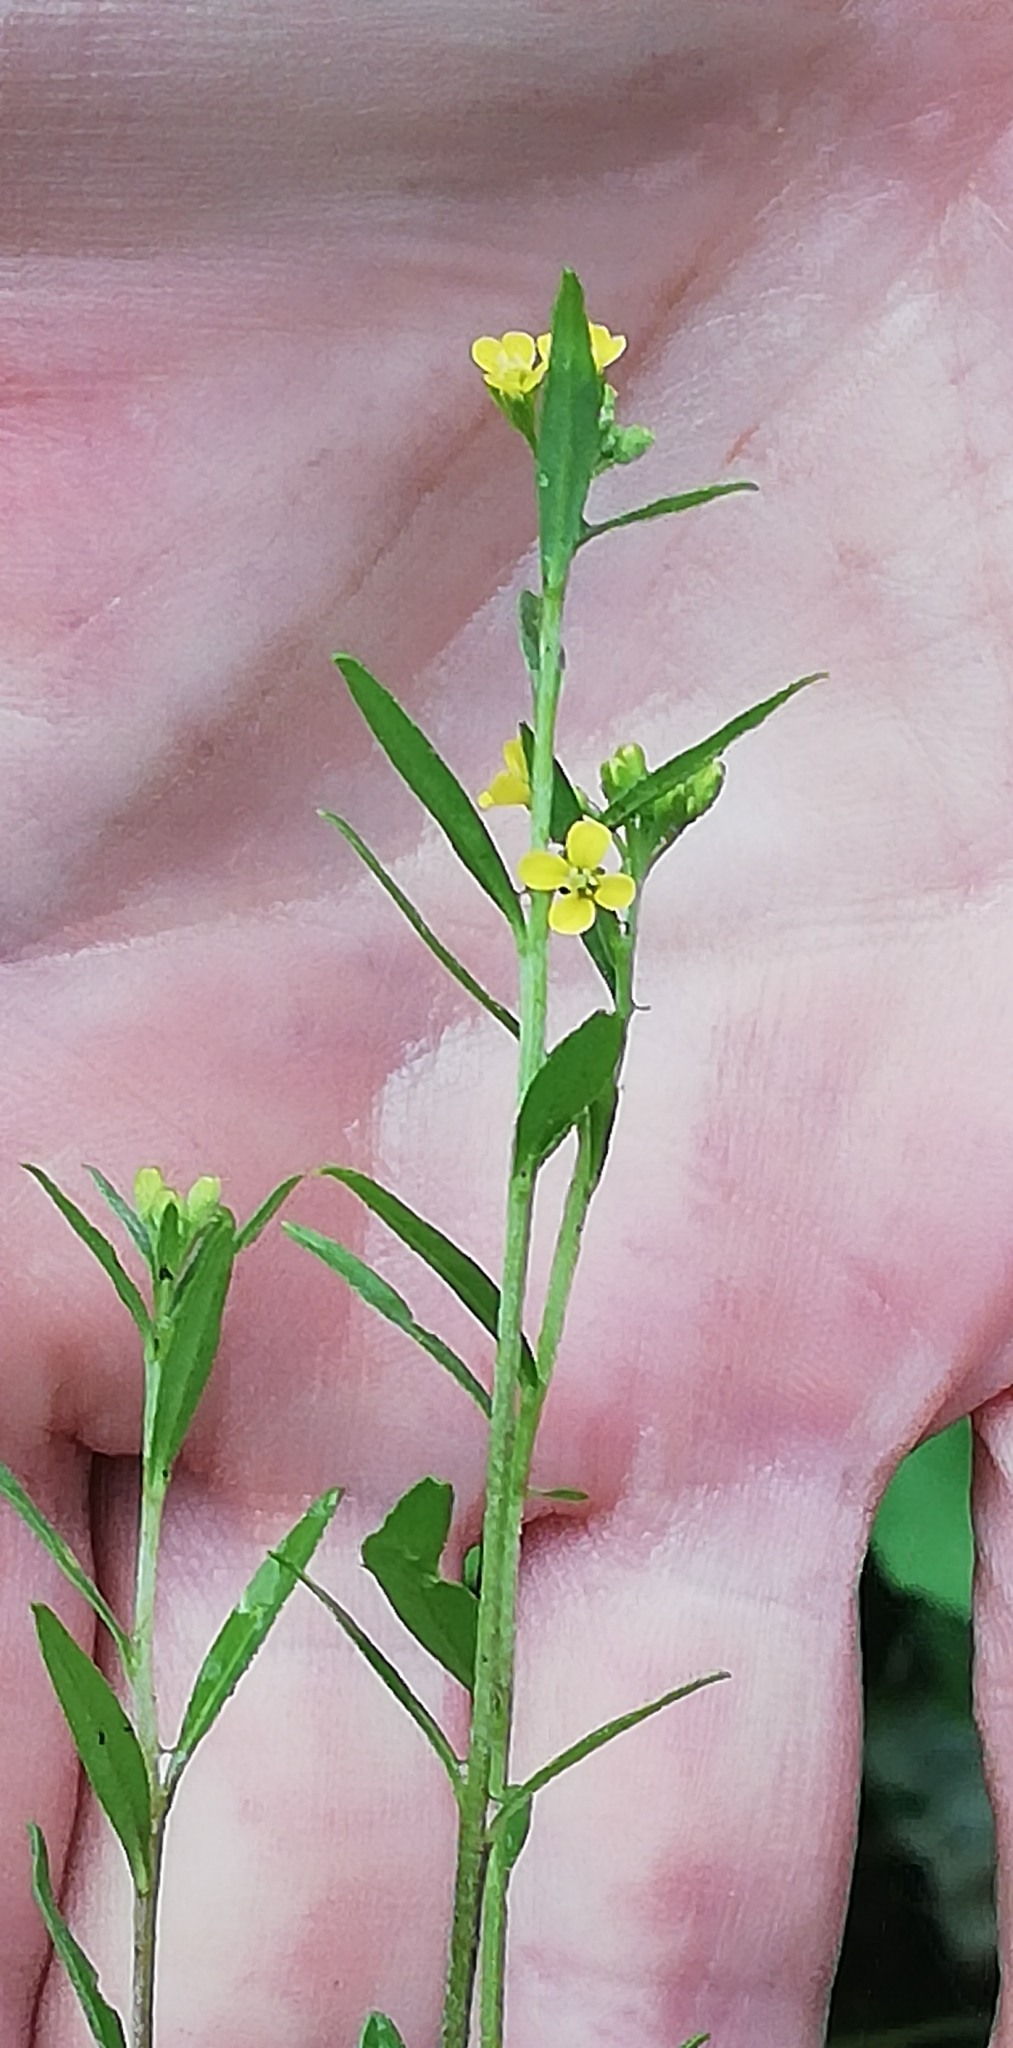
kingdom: Plantae
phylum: Tracheophyta
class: Magnoliopsida
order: Brassicales
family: Brassicaceae
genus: Erysimum
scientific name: Erysimum cheiranthoides
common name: Treacle mustard
